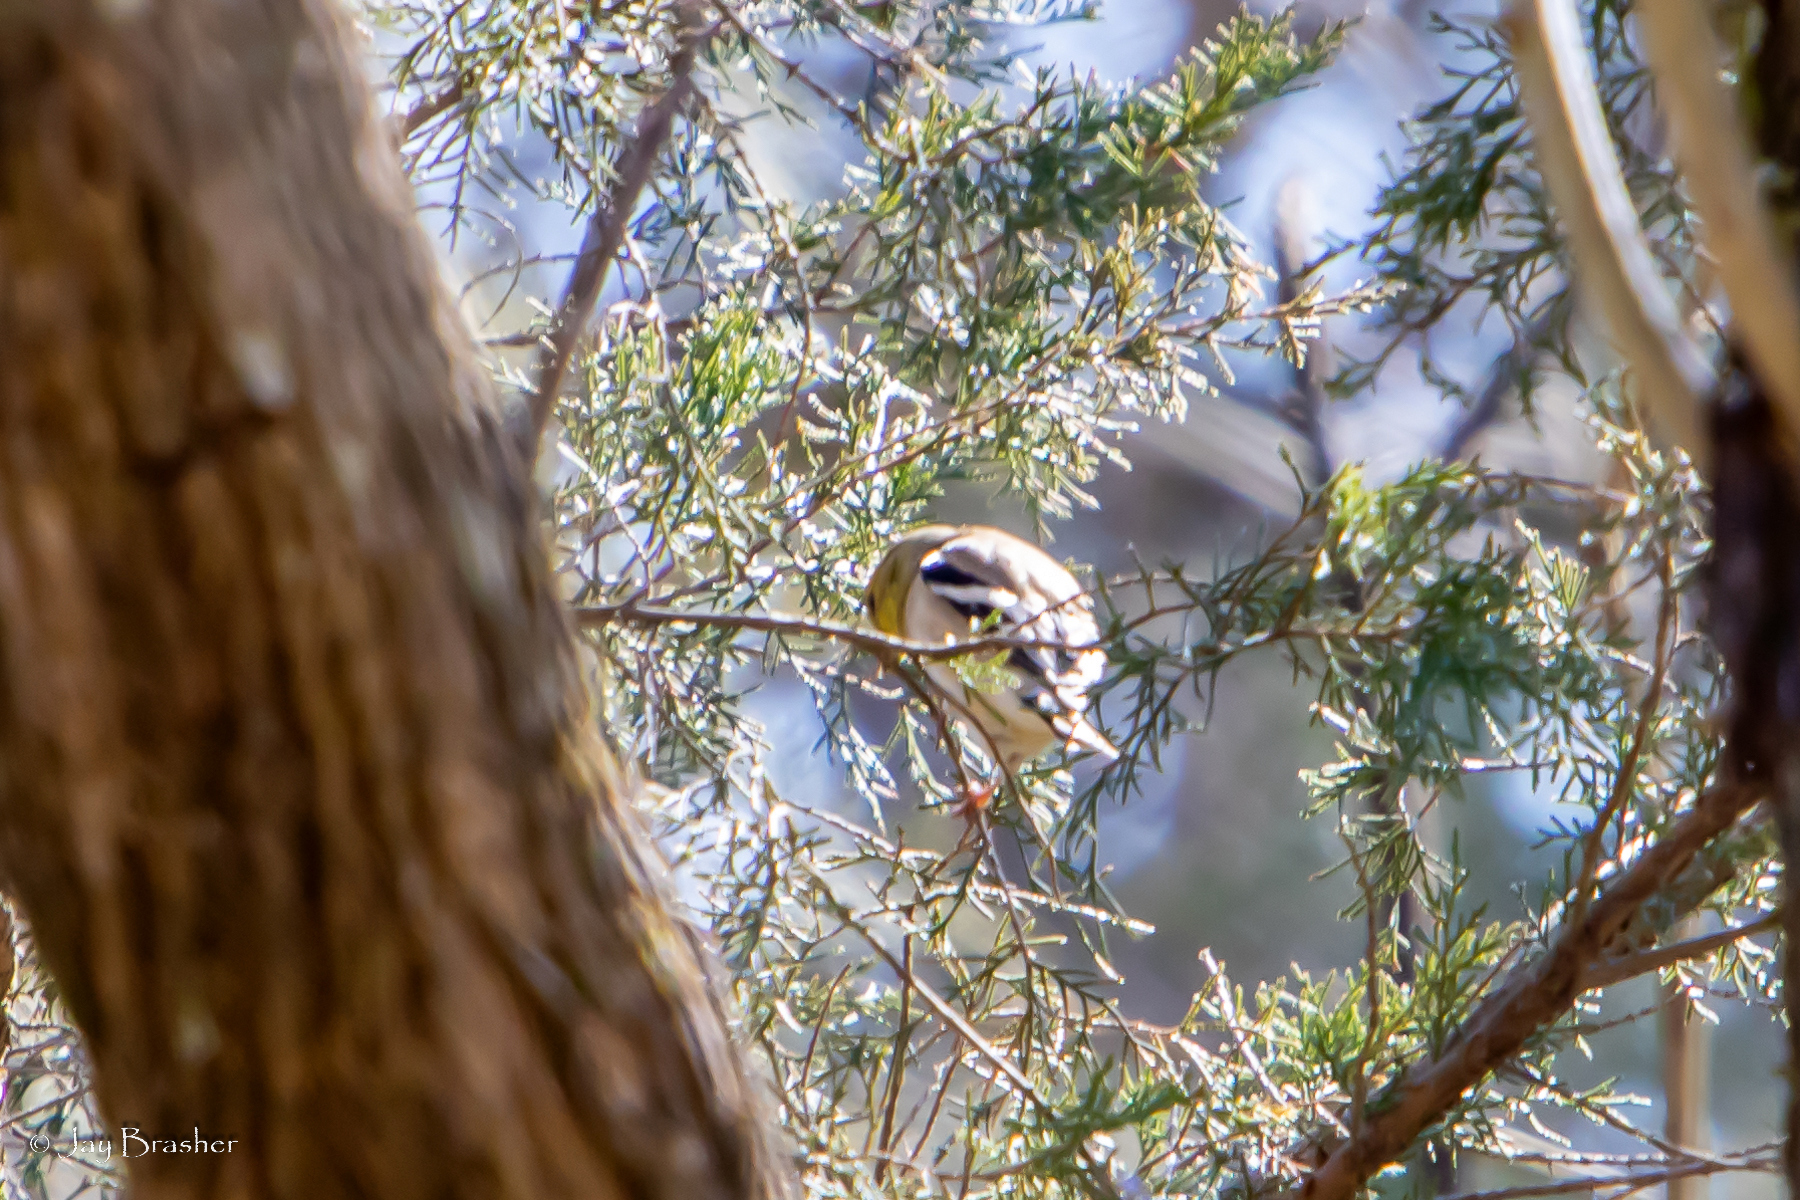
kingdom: Animalia
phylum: Chordata
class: Aves
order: Passeriformes
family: Fringillidae
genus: Spinus
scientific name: Spinus tristis
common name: American goldfinch
